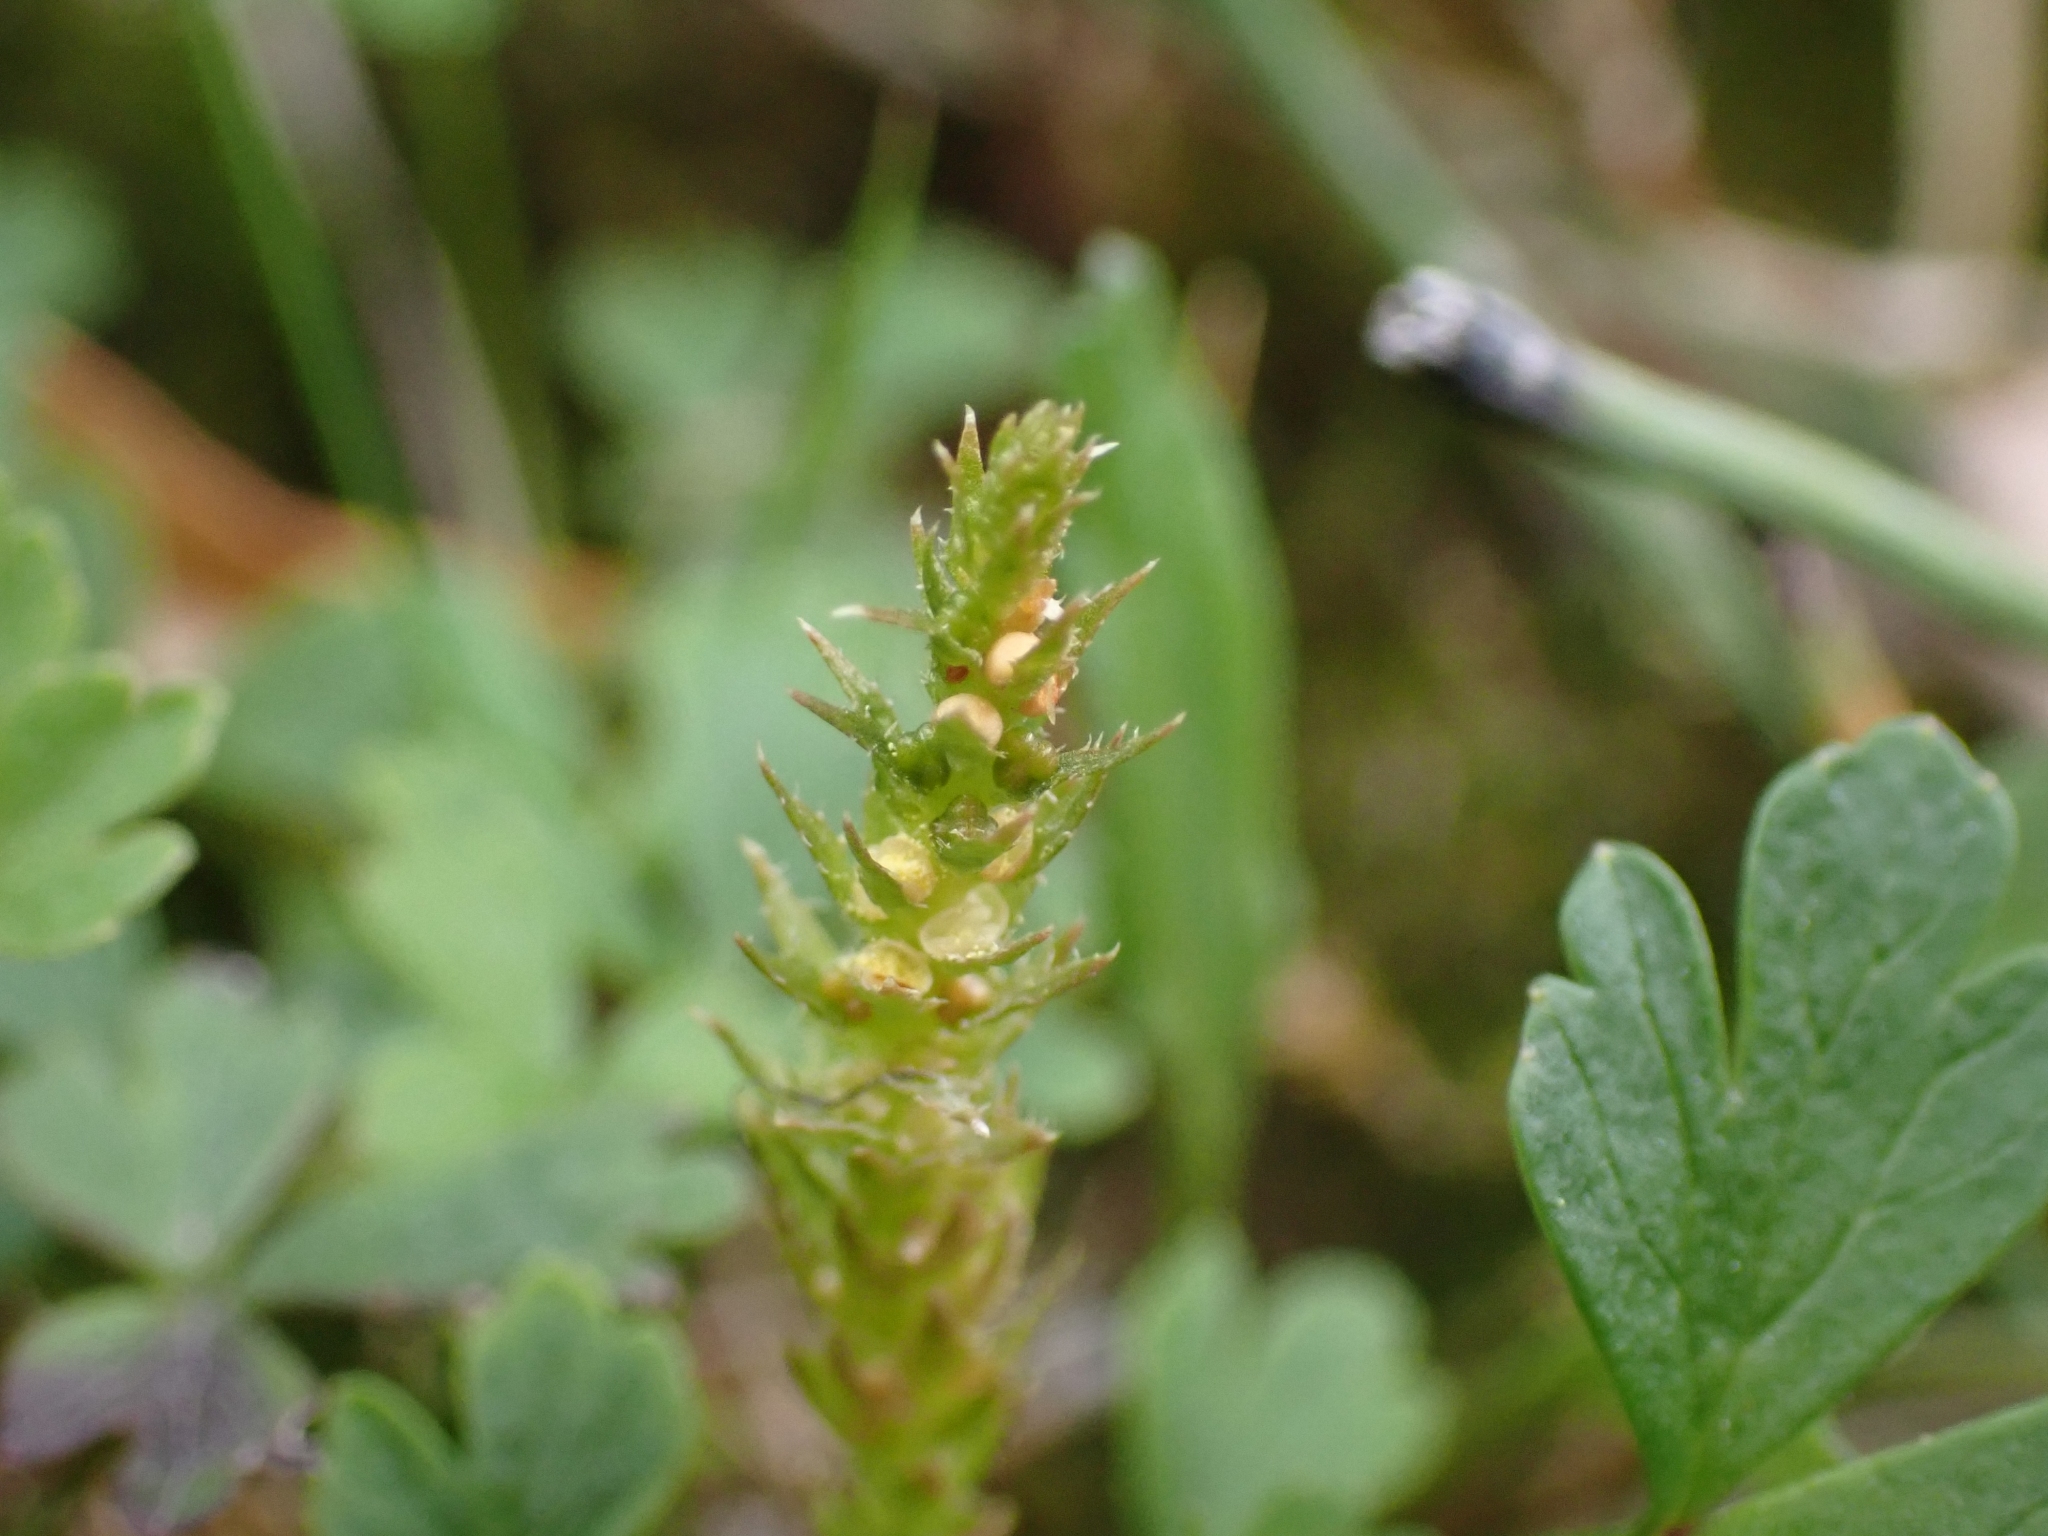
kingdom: Plantae
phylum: Tracheophyta
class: Lycopodiopsida
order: Selaginellales
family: Selaginellaceae
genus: Selaginella
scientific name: Selaginella selaginoides
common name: Prickly mountain-moss
